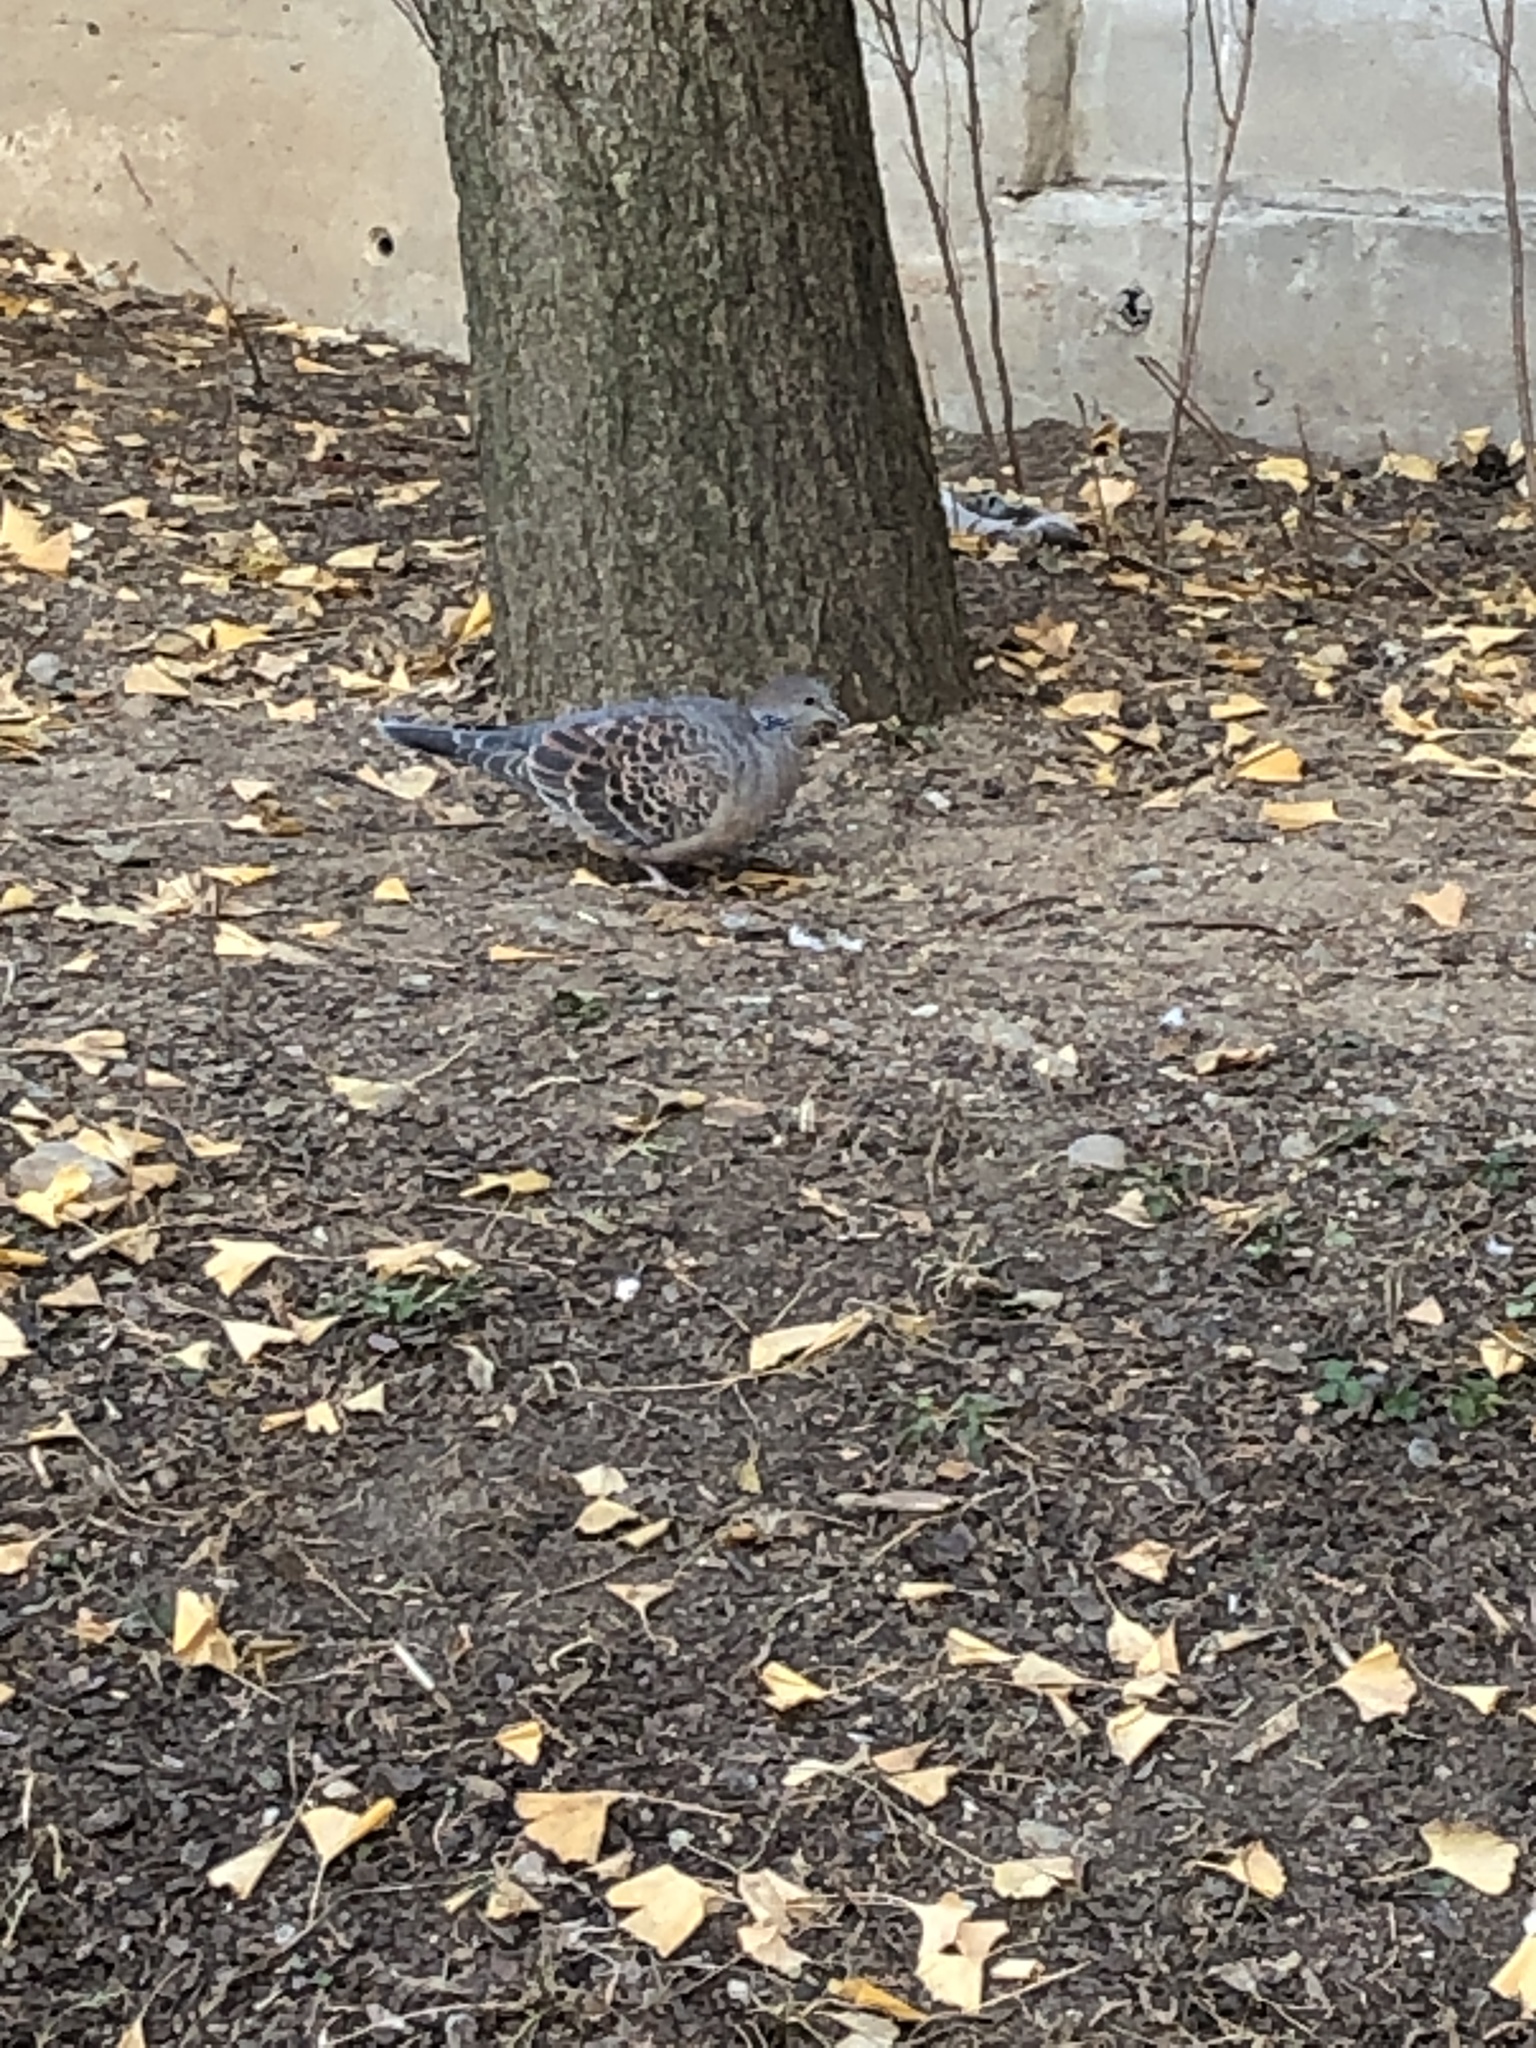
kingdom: Animalia
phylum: Chordata
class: Aves
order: Columbiformes
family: Columbidae
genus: Streptopelia
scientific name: Streptopelia orientalis
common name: Oriental turtle dove
